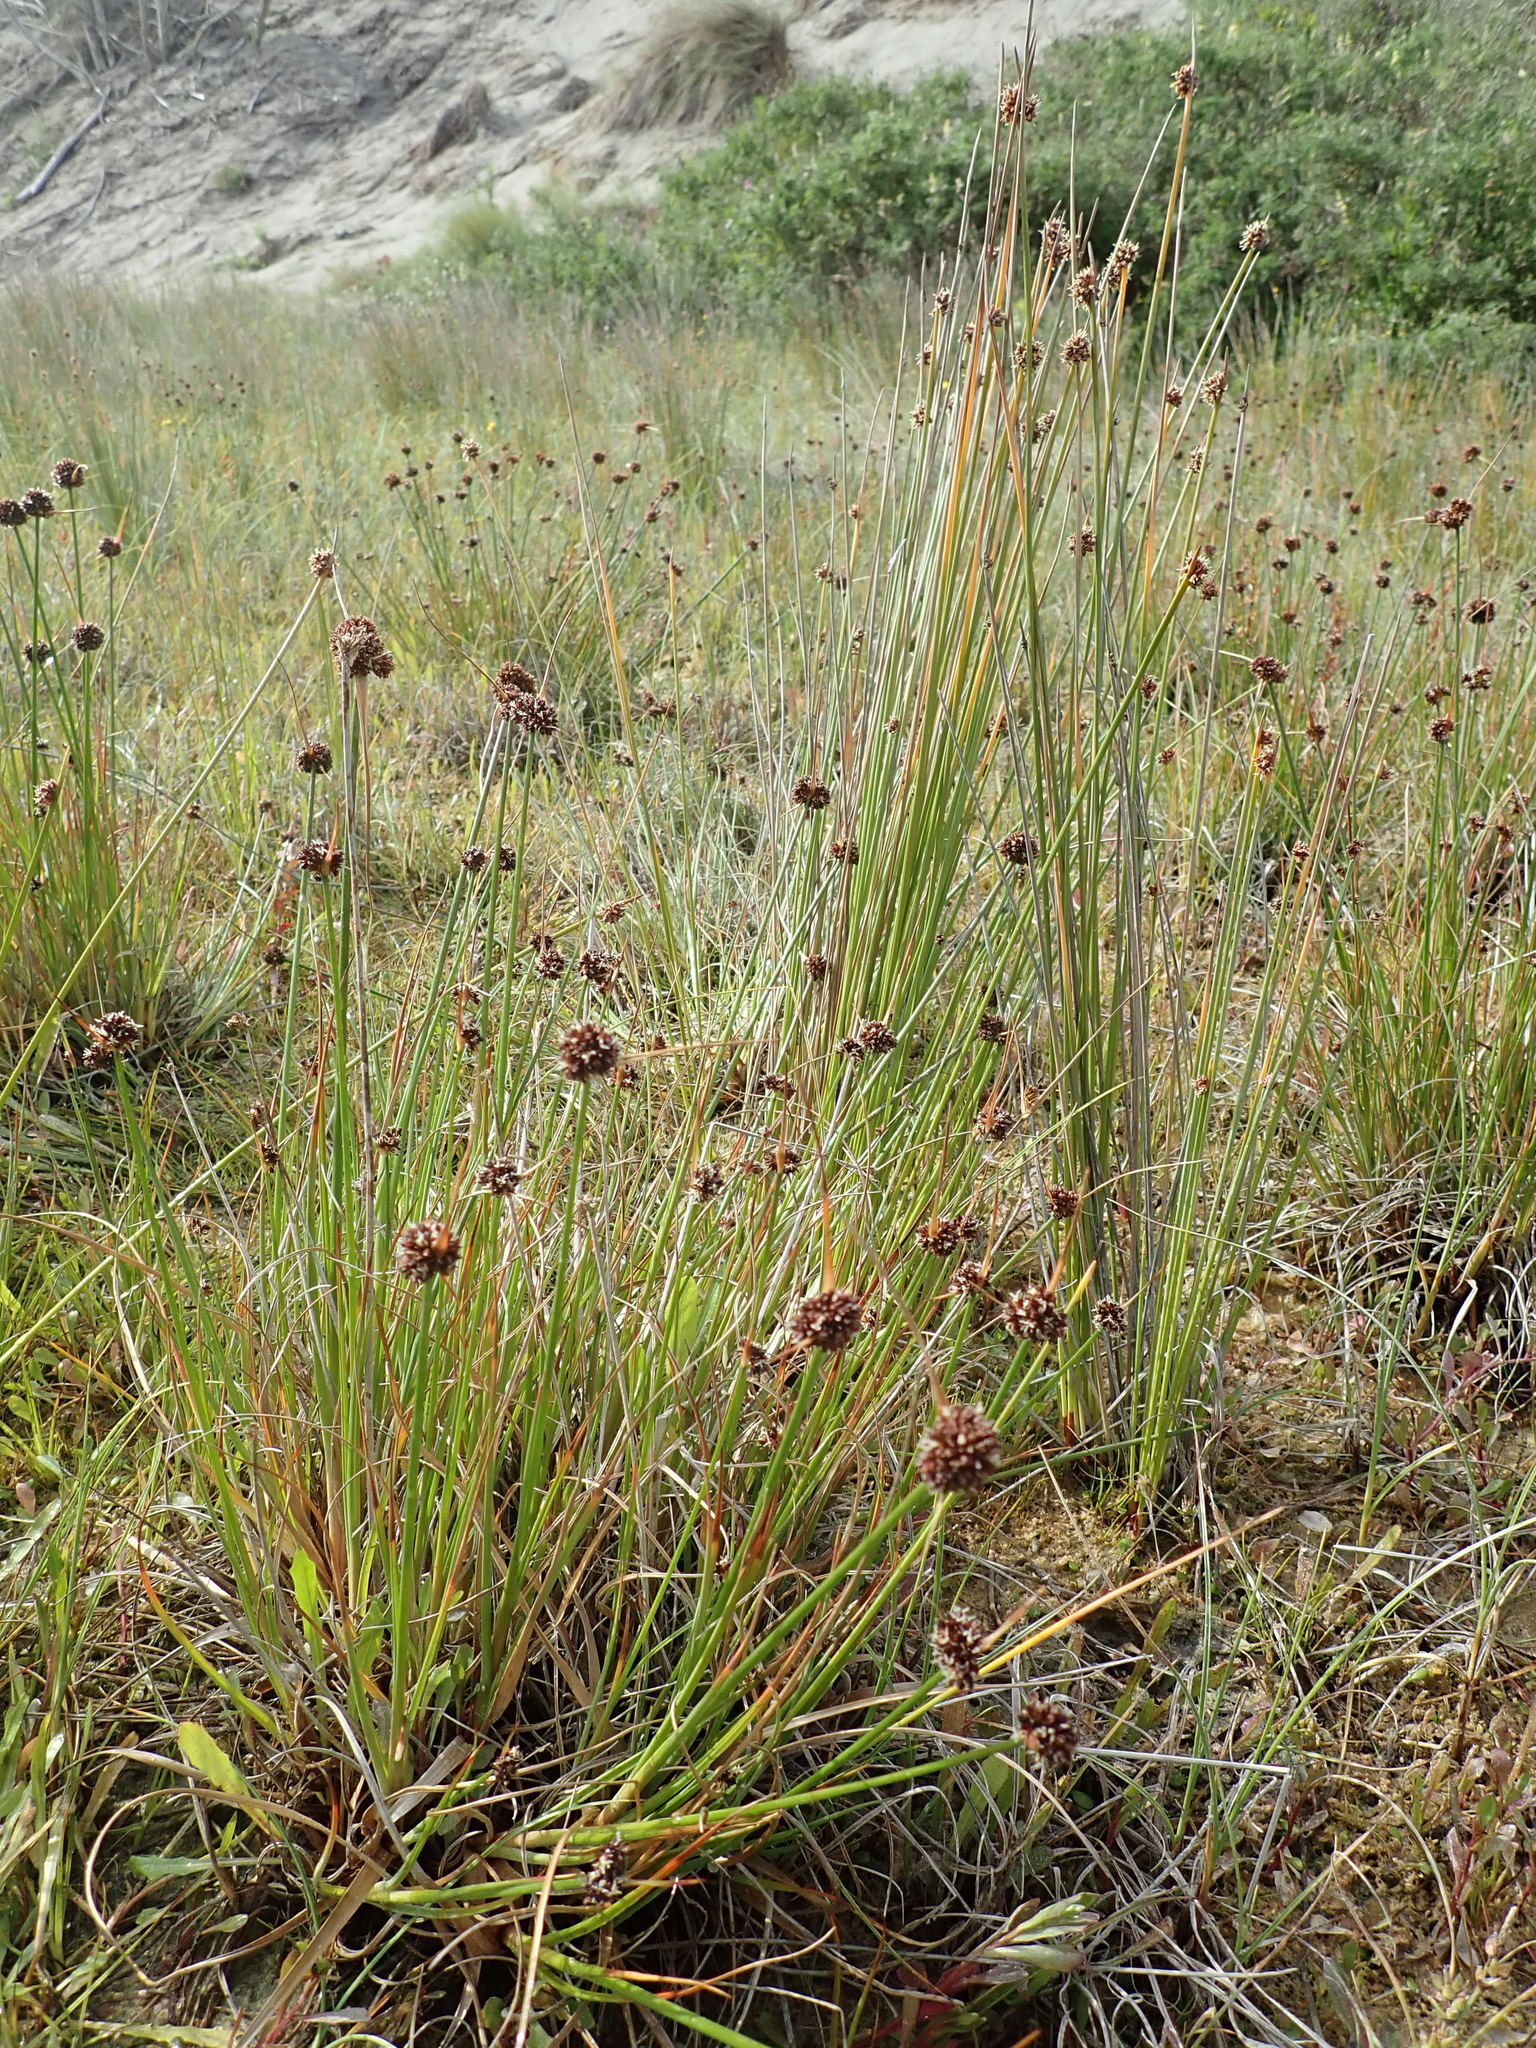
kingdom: Plantae
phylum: Tracheophyta
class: Liliopsida
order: Poales
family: Juncaceae
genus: Juncus
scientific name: Juncus caespiticius
